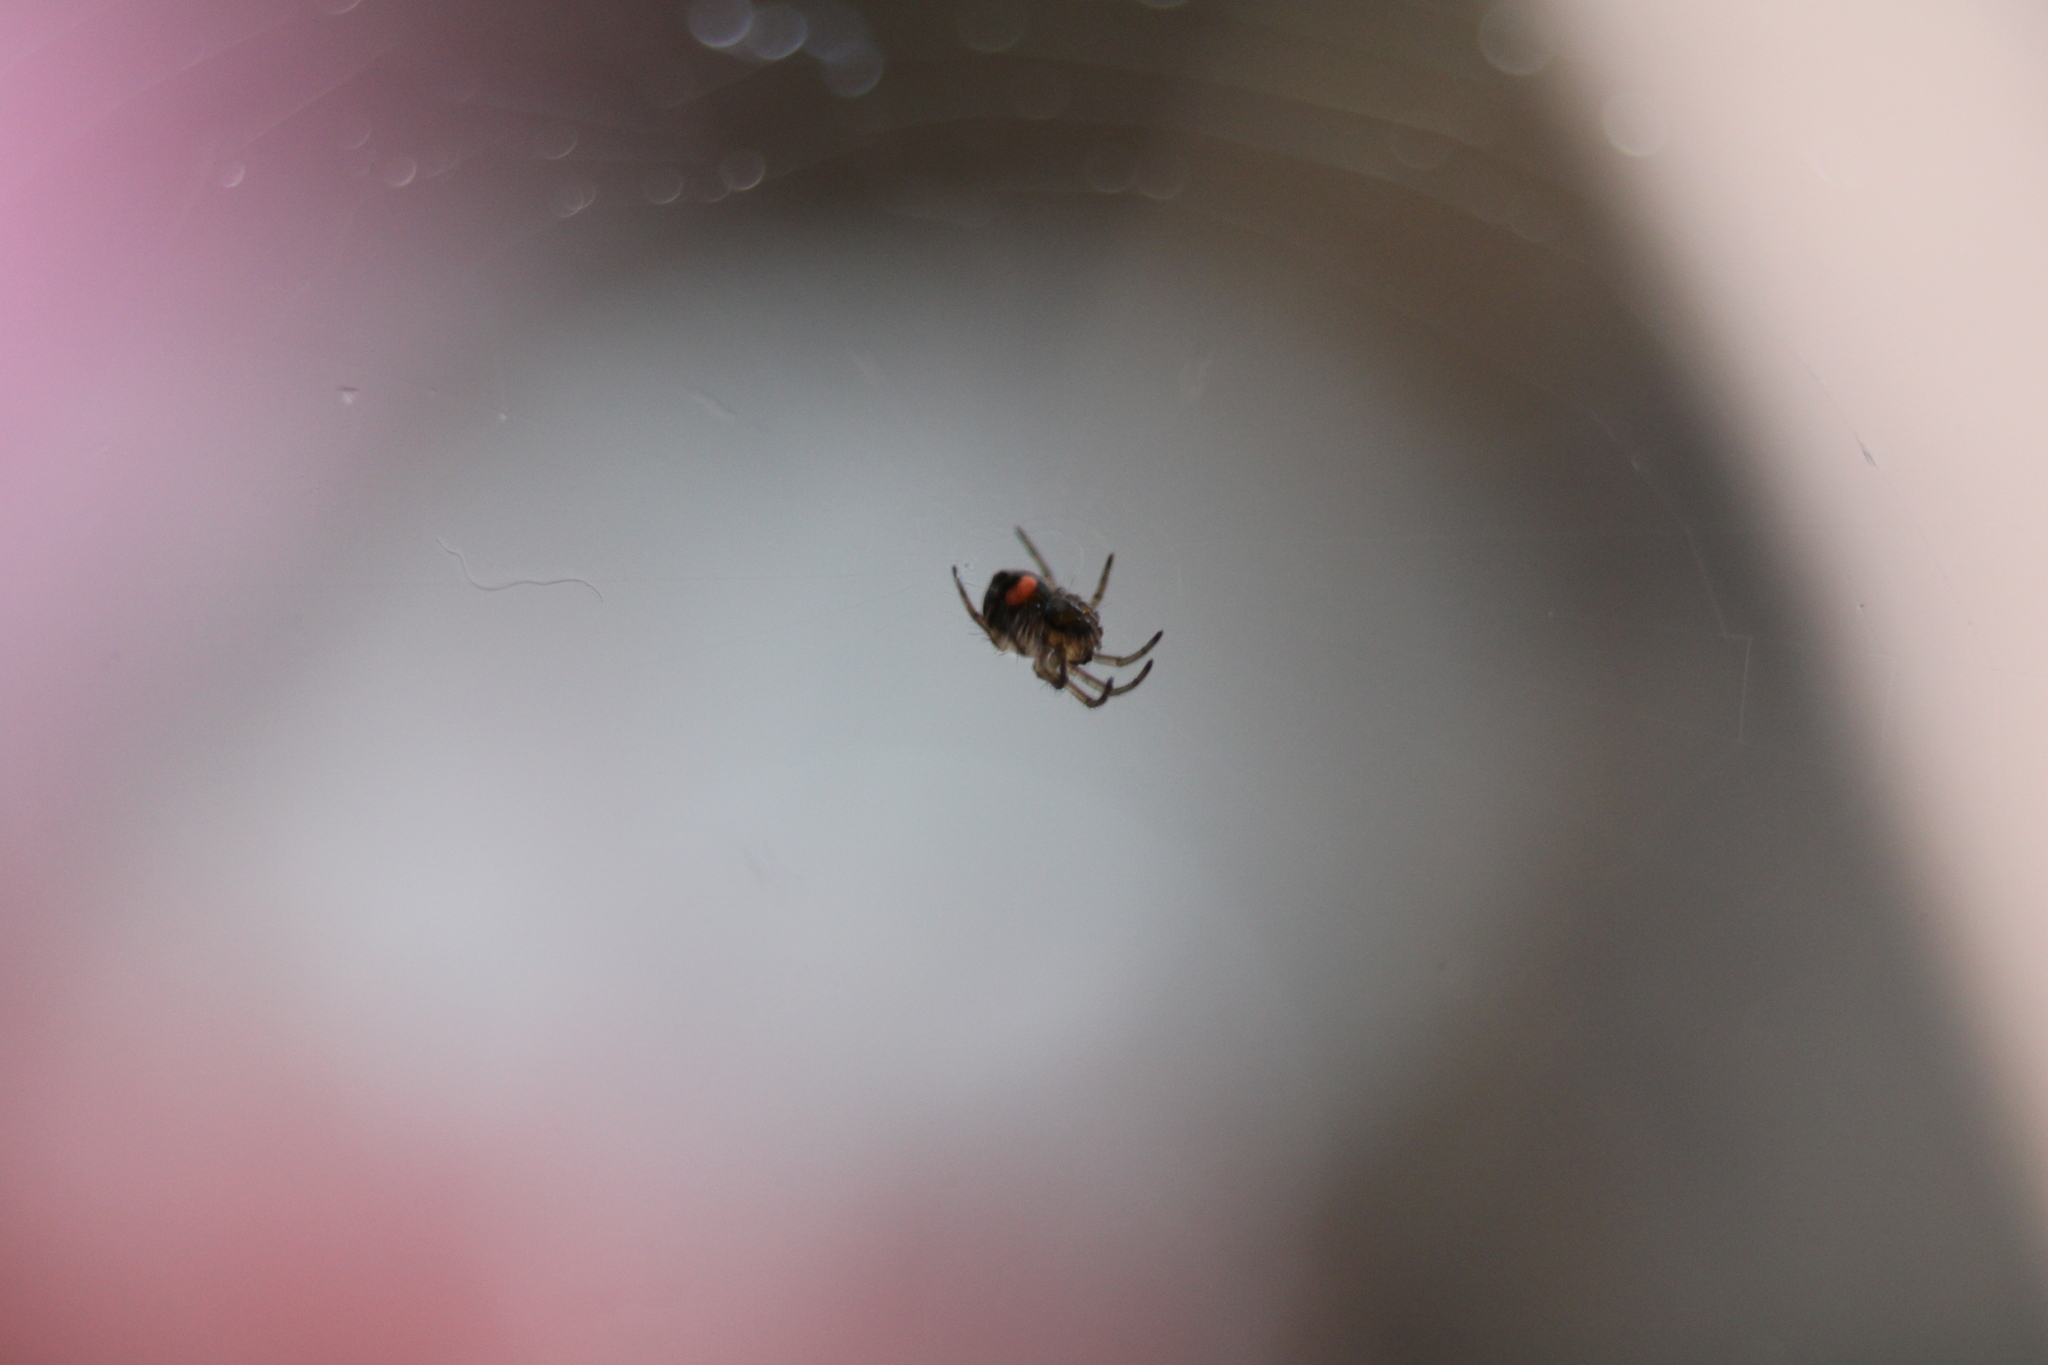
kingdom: Animalia
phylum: Arthropoda
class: Arachnida
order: Araneae
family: Tetragnathidae
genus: Leucauge
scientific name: Leucauge venusta
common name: Longjawed orb weavers
